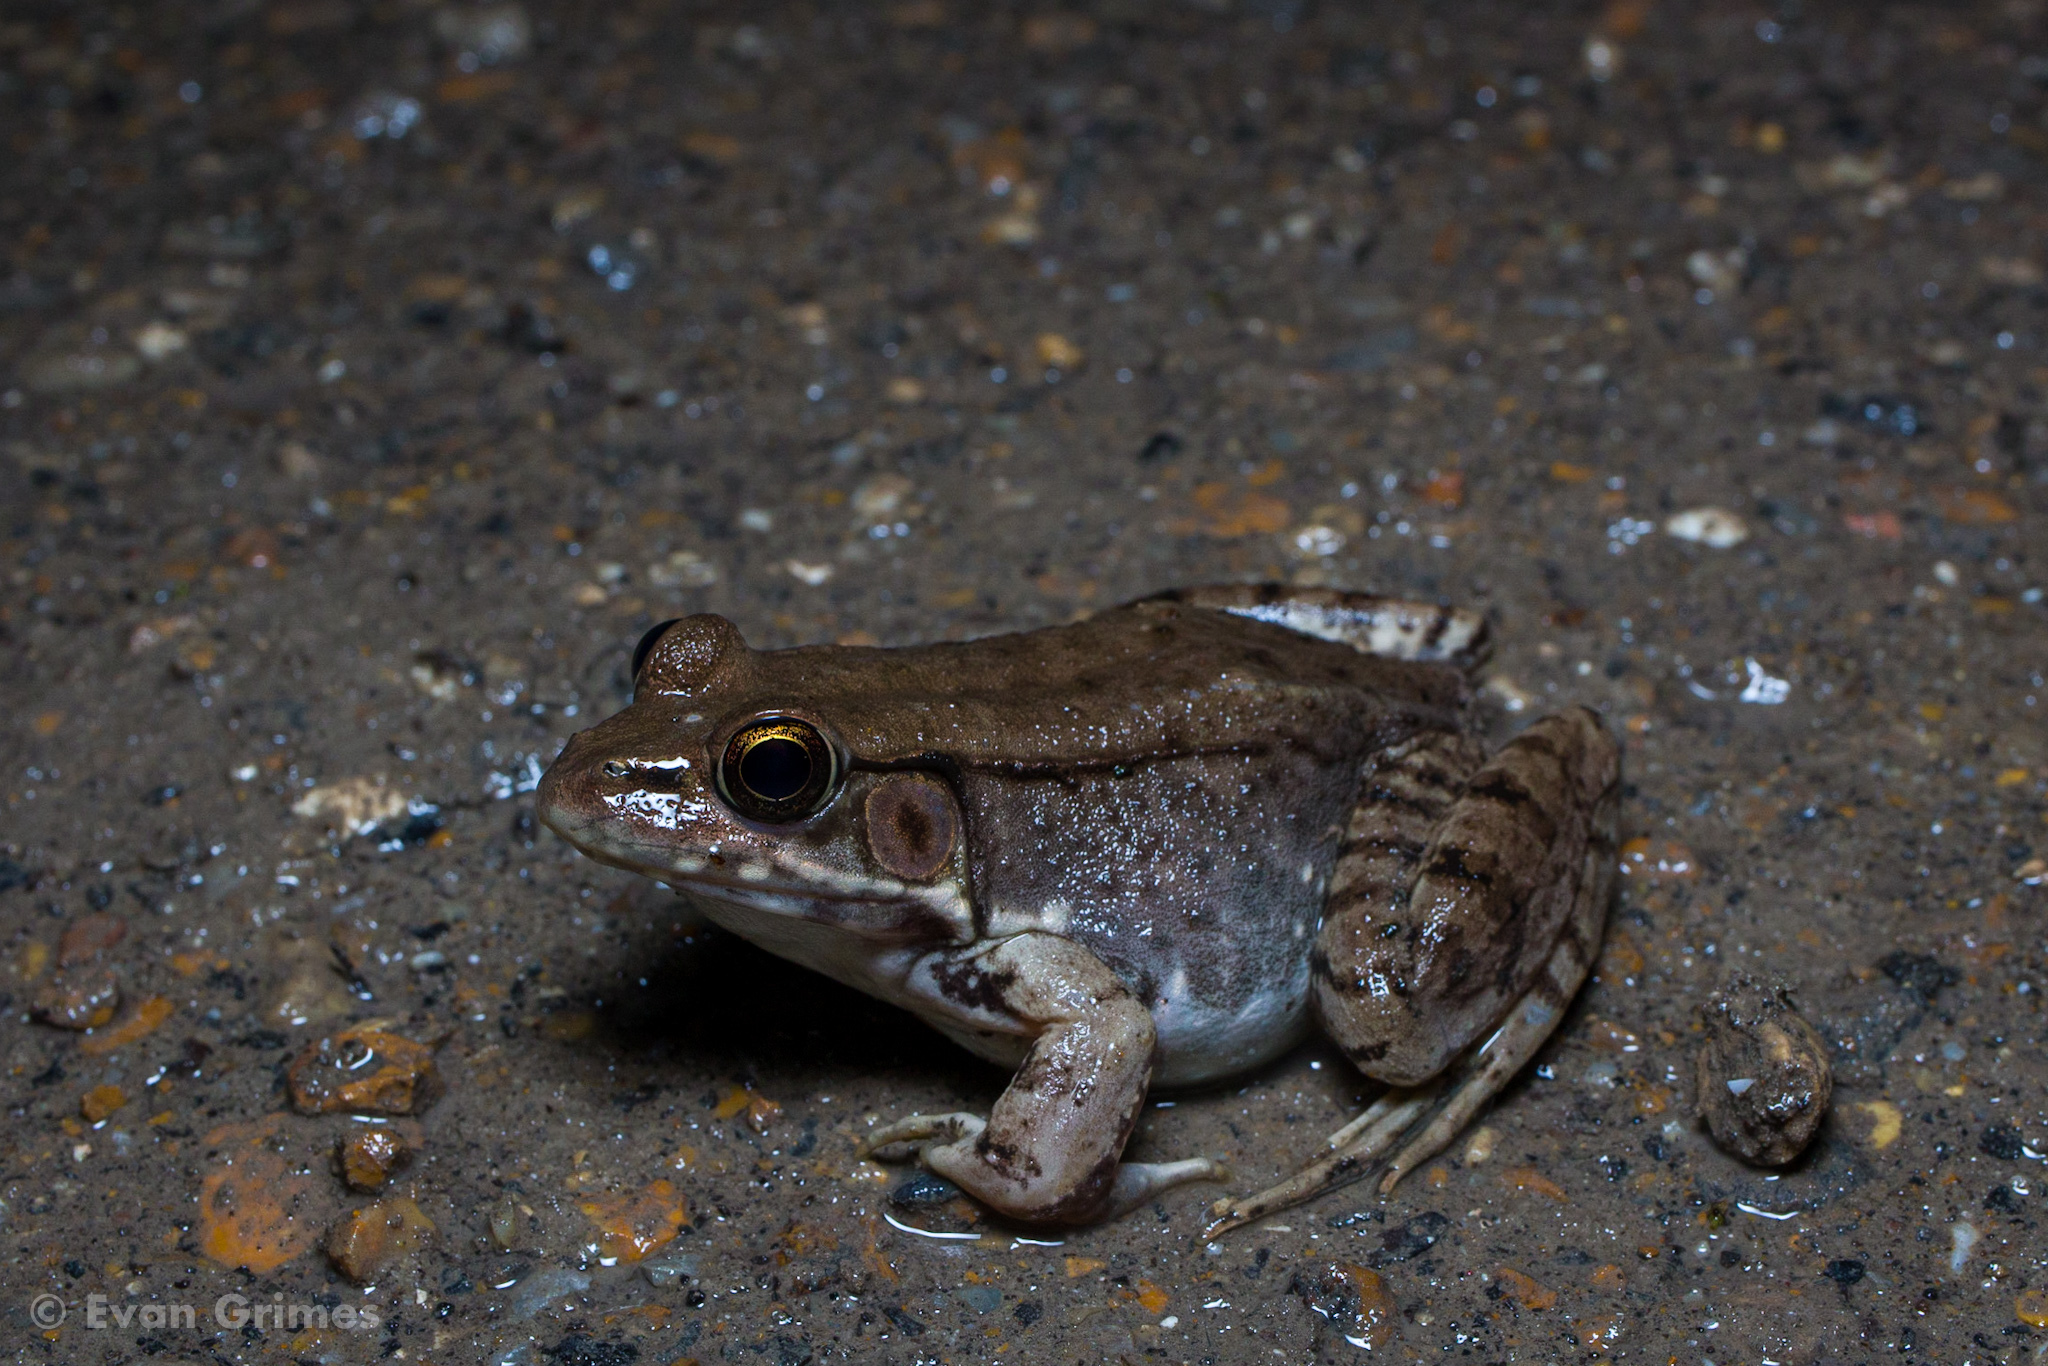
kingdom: Animalia
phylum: Chordata
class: Amphibia
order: Anura
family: Ranidae
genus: Lithobates
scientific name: Lithobates clamitans
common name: Green frog
